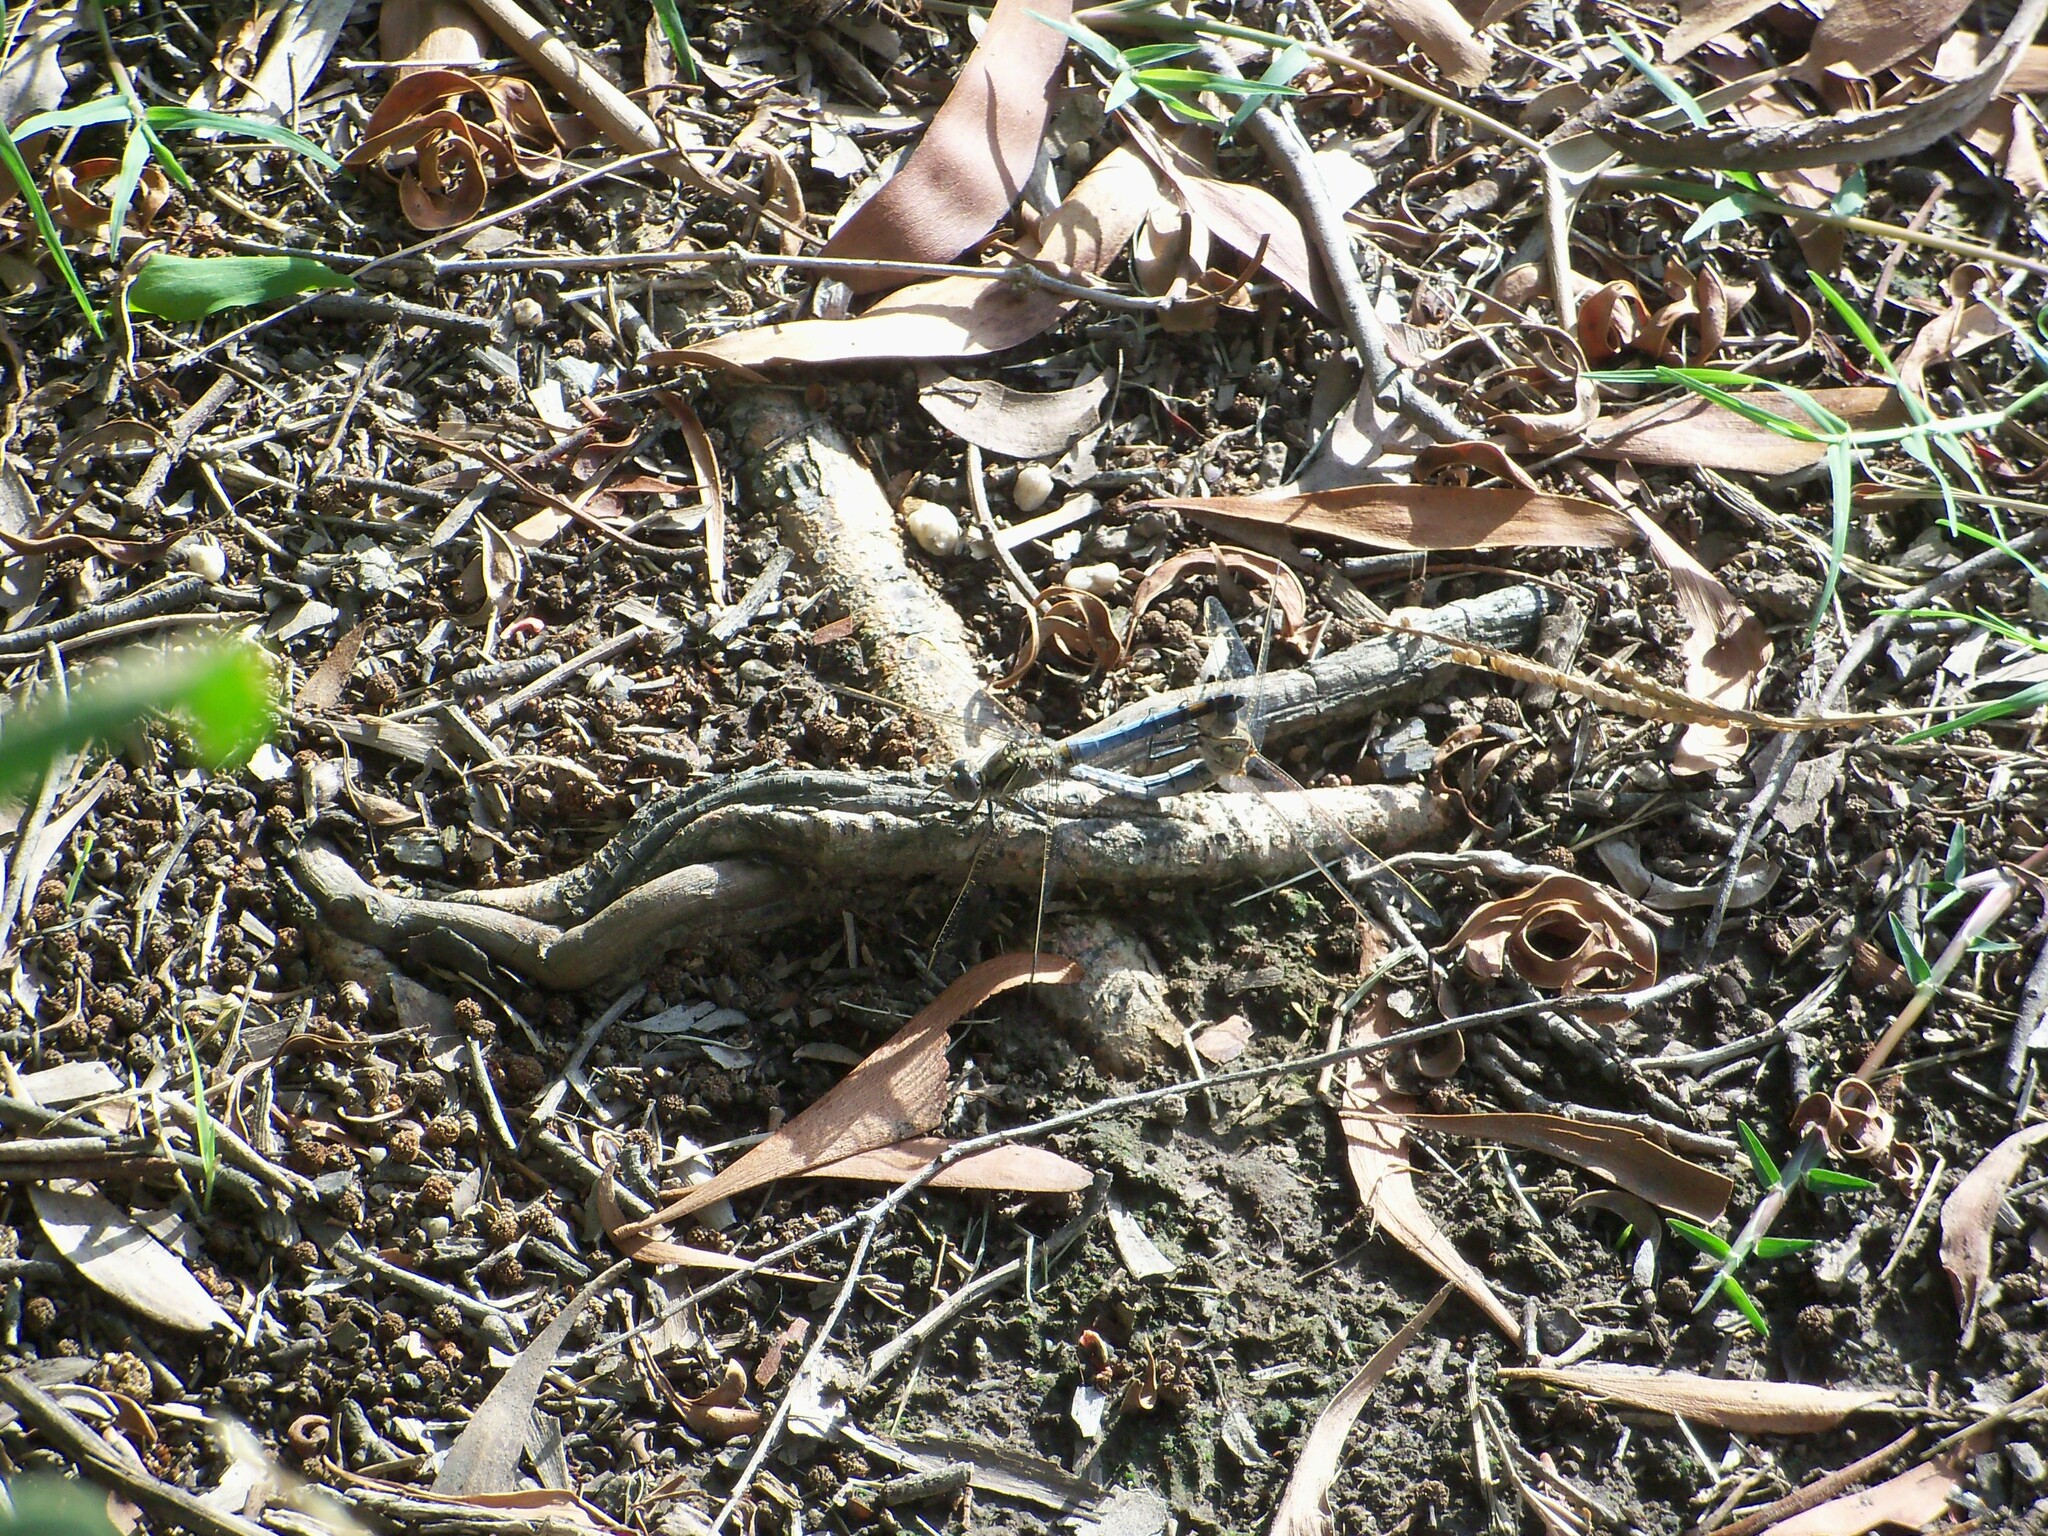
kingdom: Animalia
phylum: Arthropoda
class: Insecta
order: Odonata
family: Libellulidae
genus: Orthetrum
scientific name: Orthetrum caledonicum
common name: Blue skimmer
